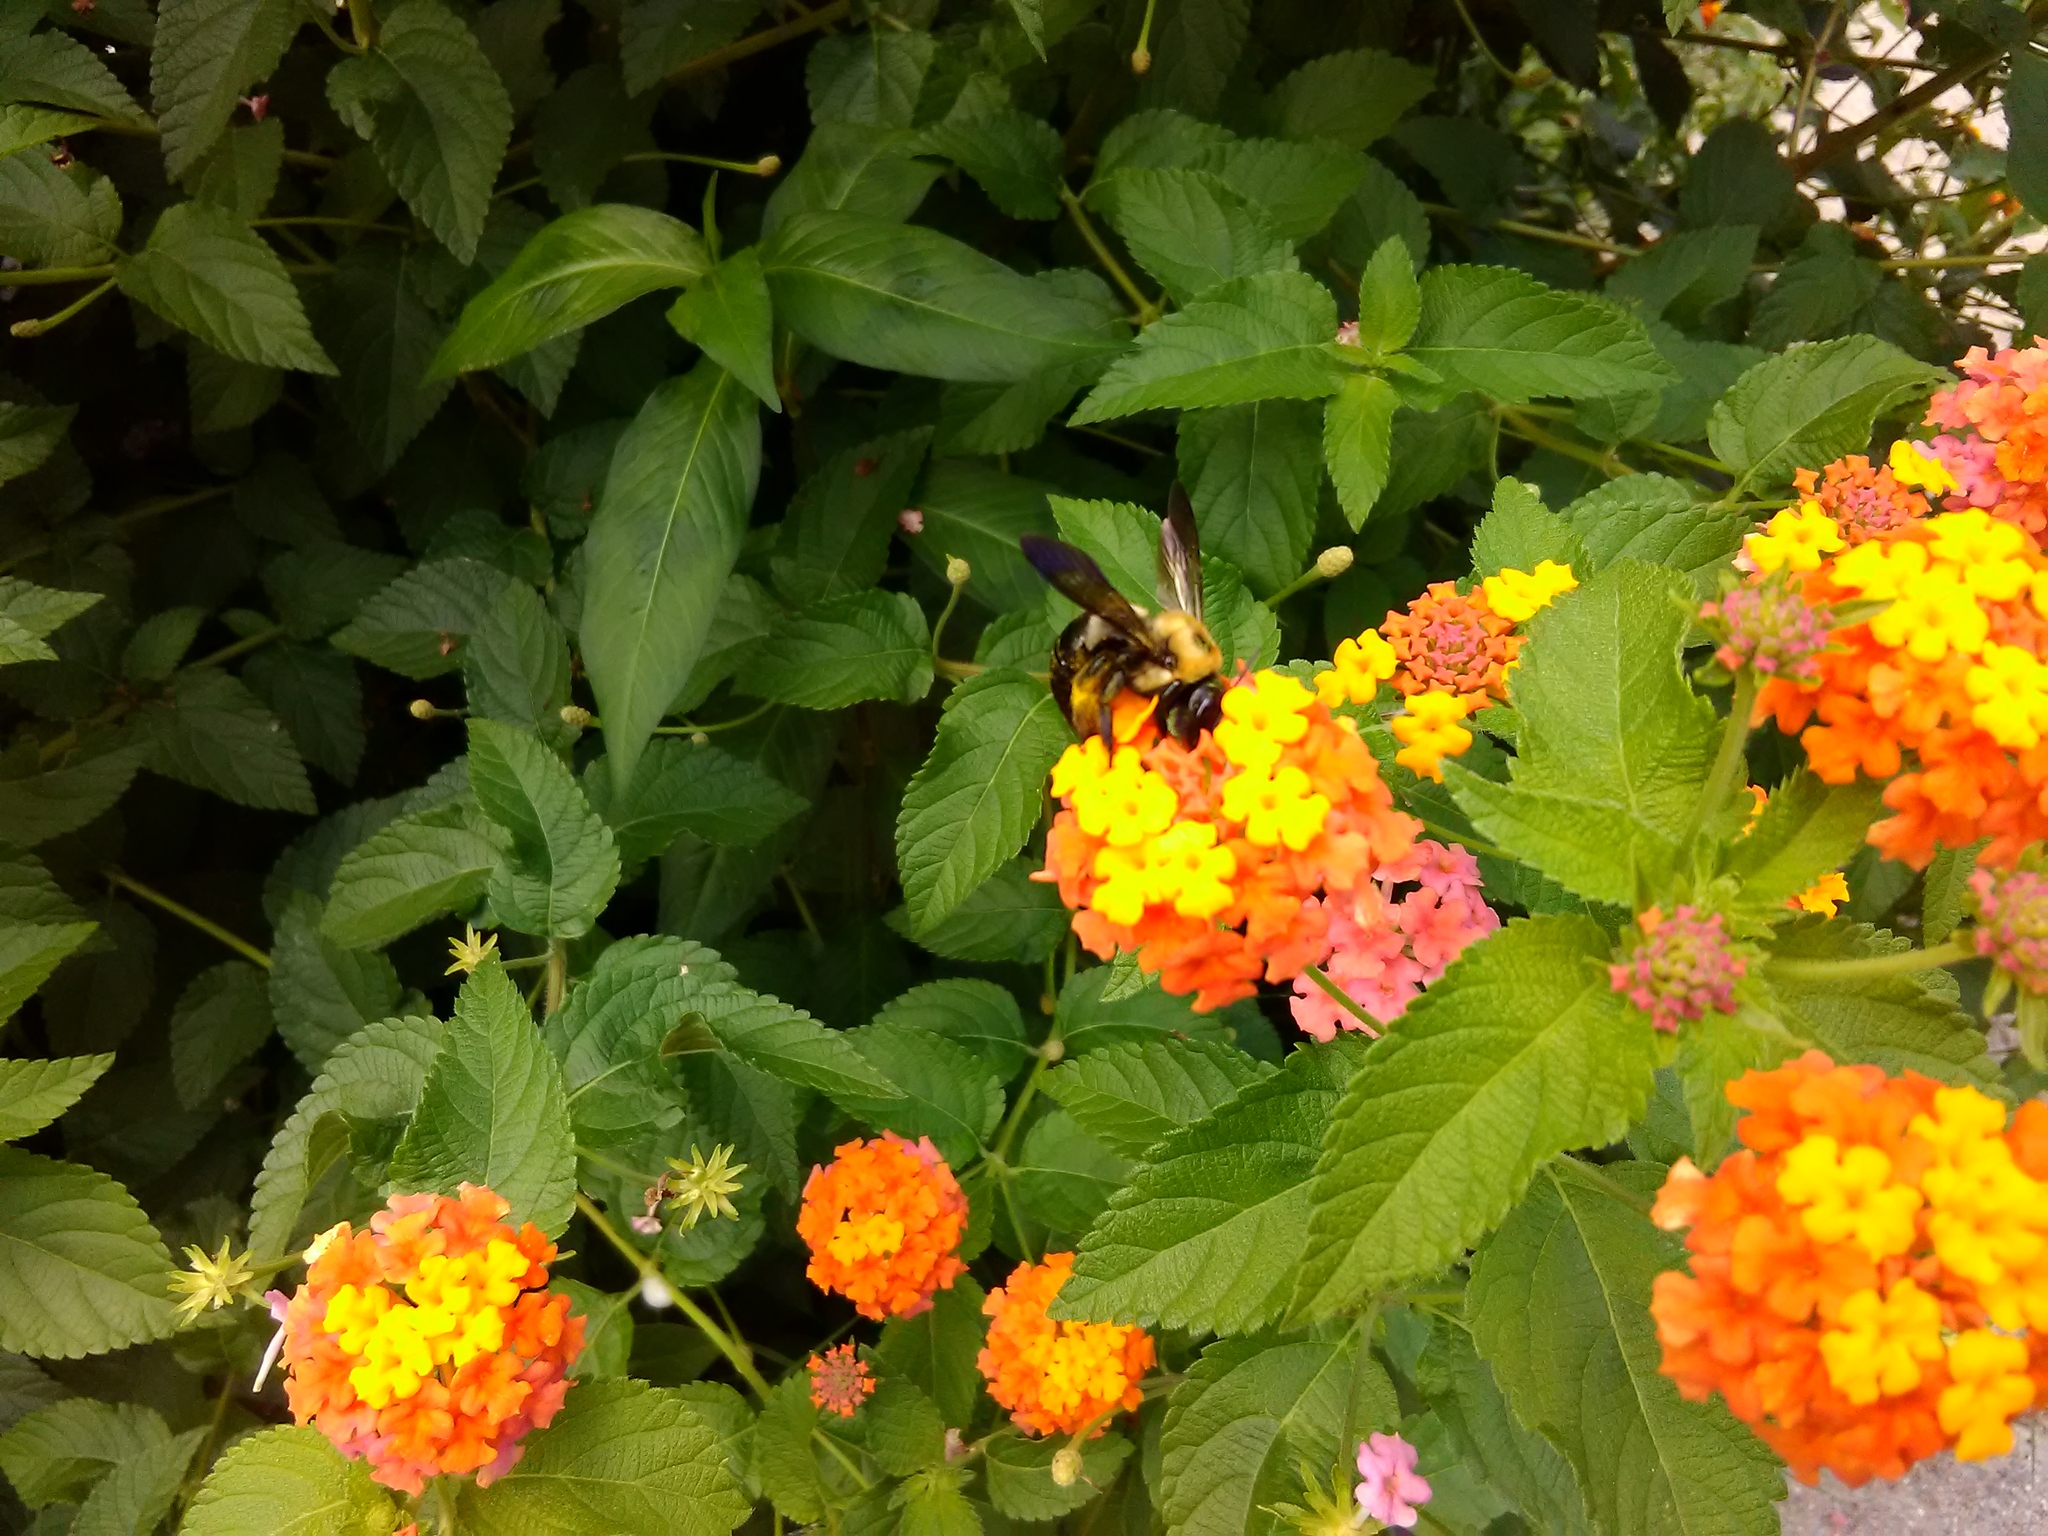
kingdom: Animalia
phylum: Arthropoda
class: Insecta
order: Hymenoptera
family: Apidae
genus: Xylocopa
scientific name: Xylocopa virginica
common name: Carpenter bee
